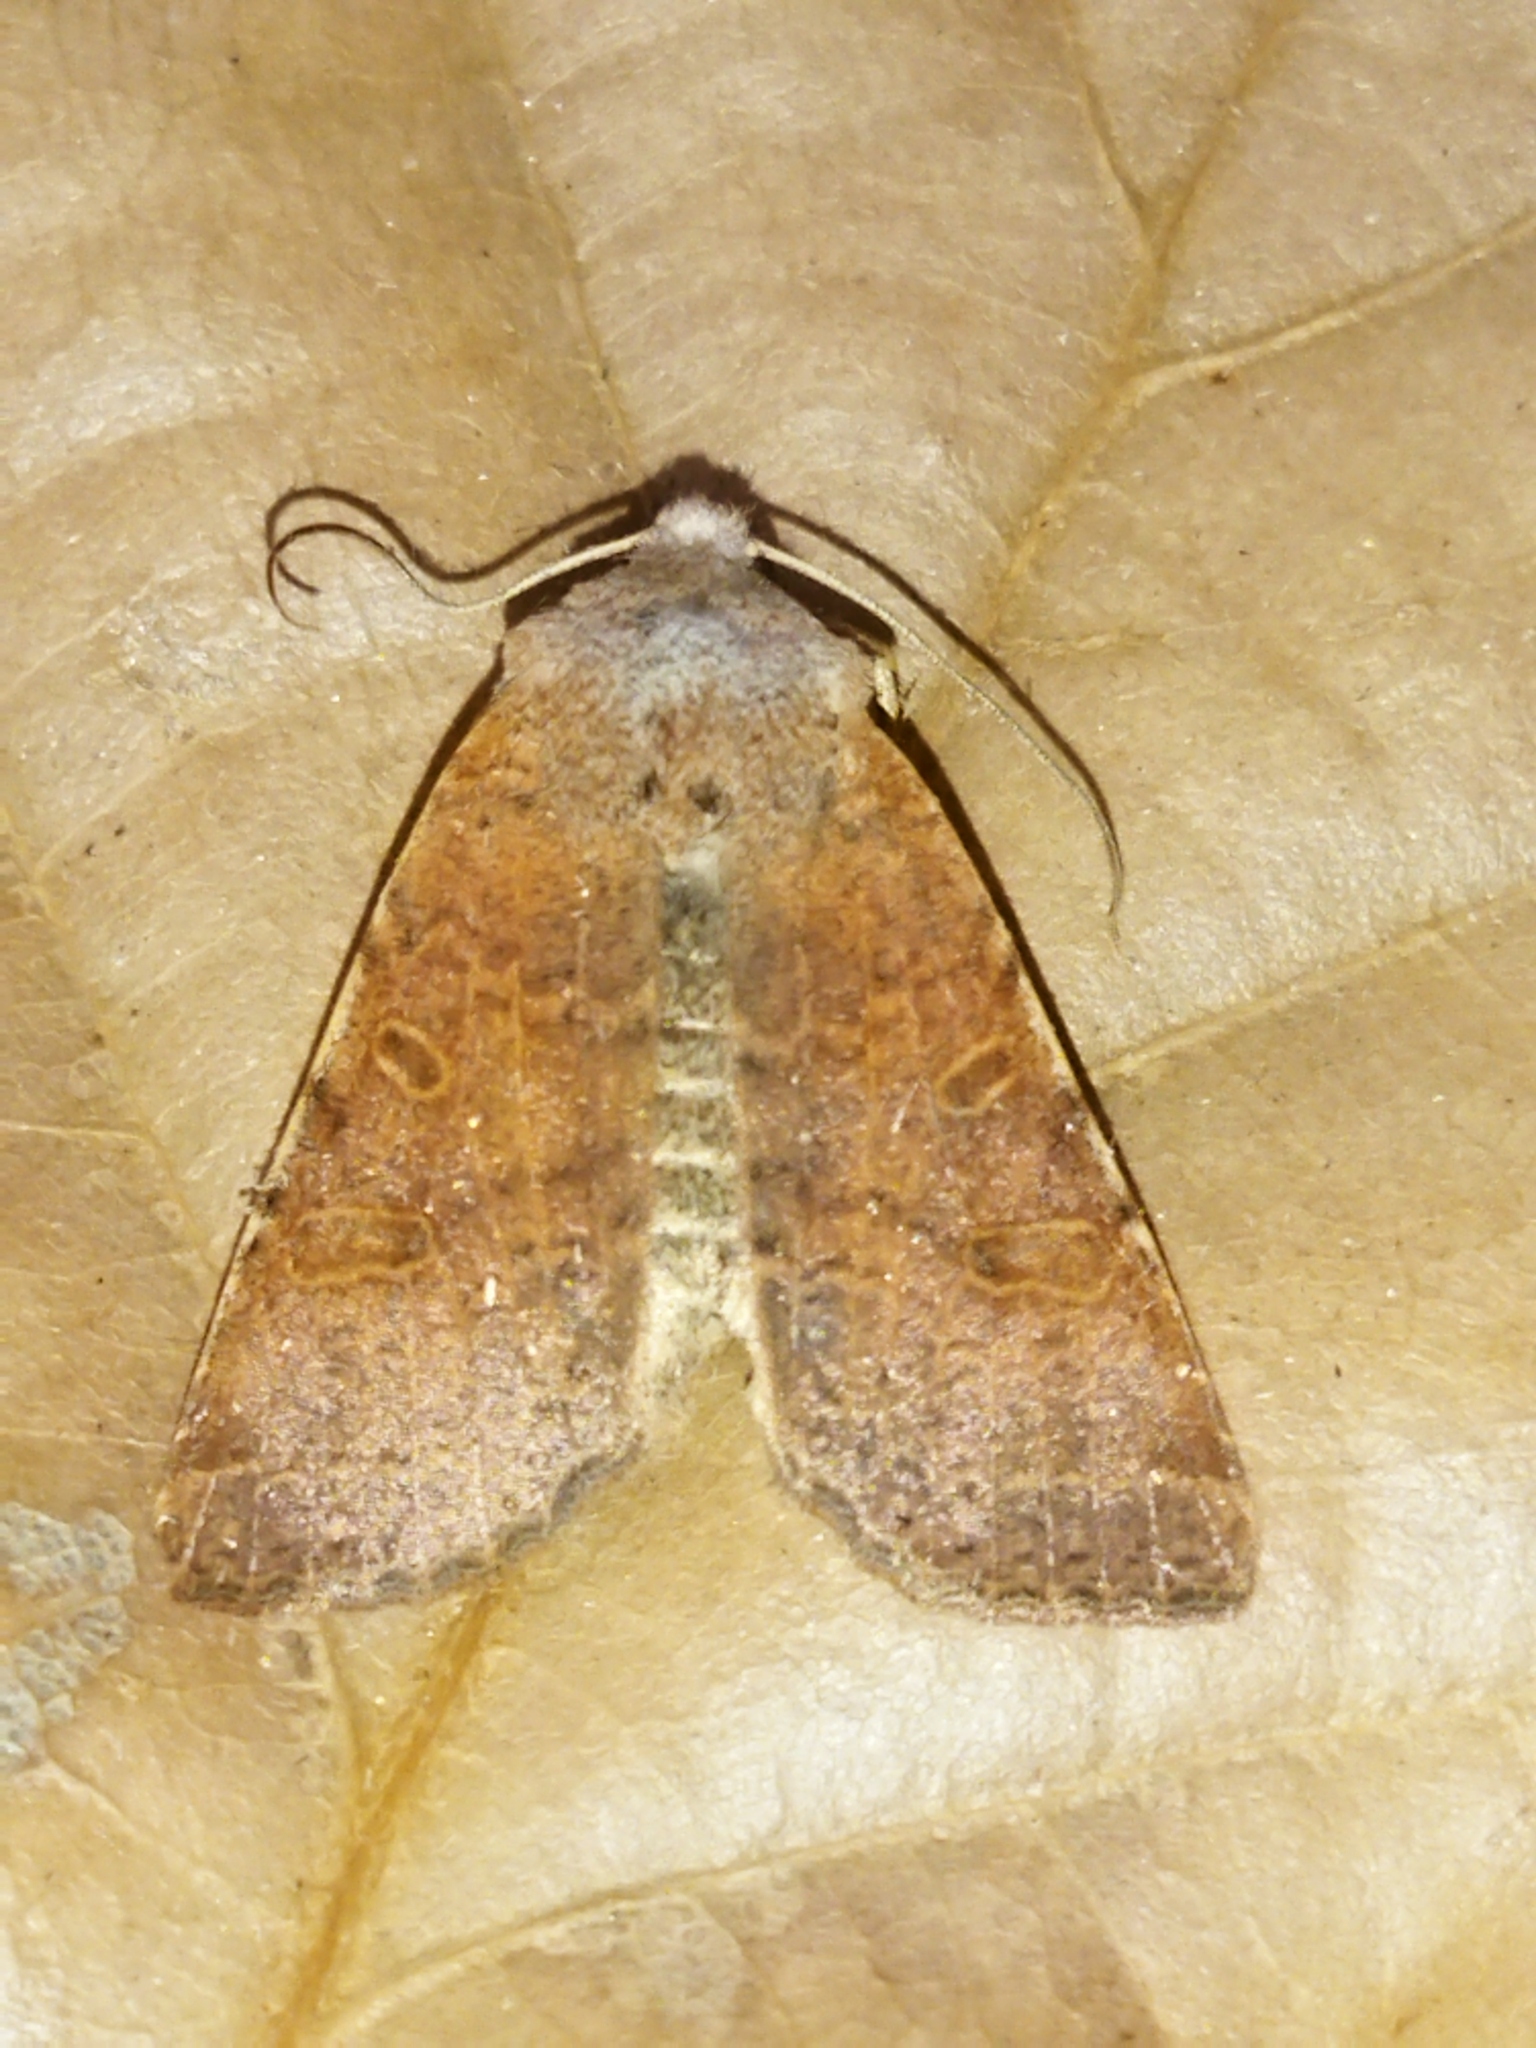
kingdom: Animalia
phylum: Arthropoda
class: Insecta
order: Lepidoptera
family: Noctuidae
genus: Agrochola
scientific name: Agrochola lychnidis
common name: Beaded chestnut
